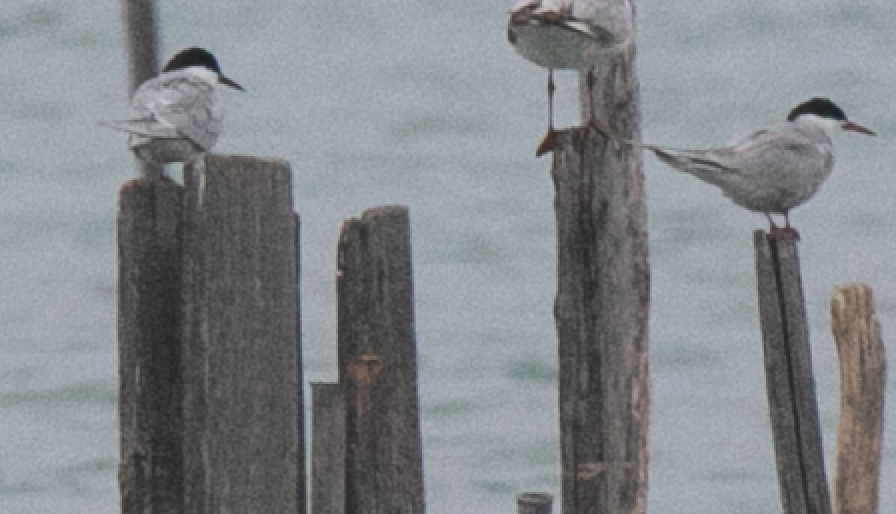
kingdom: Animalia
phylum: Chordata
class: Aves
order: Charadriiformes
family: Laridae
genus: Sterna
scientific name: Sterna hirundo
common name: Common tern
